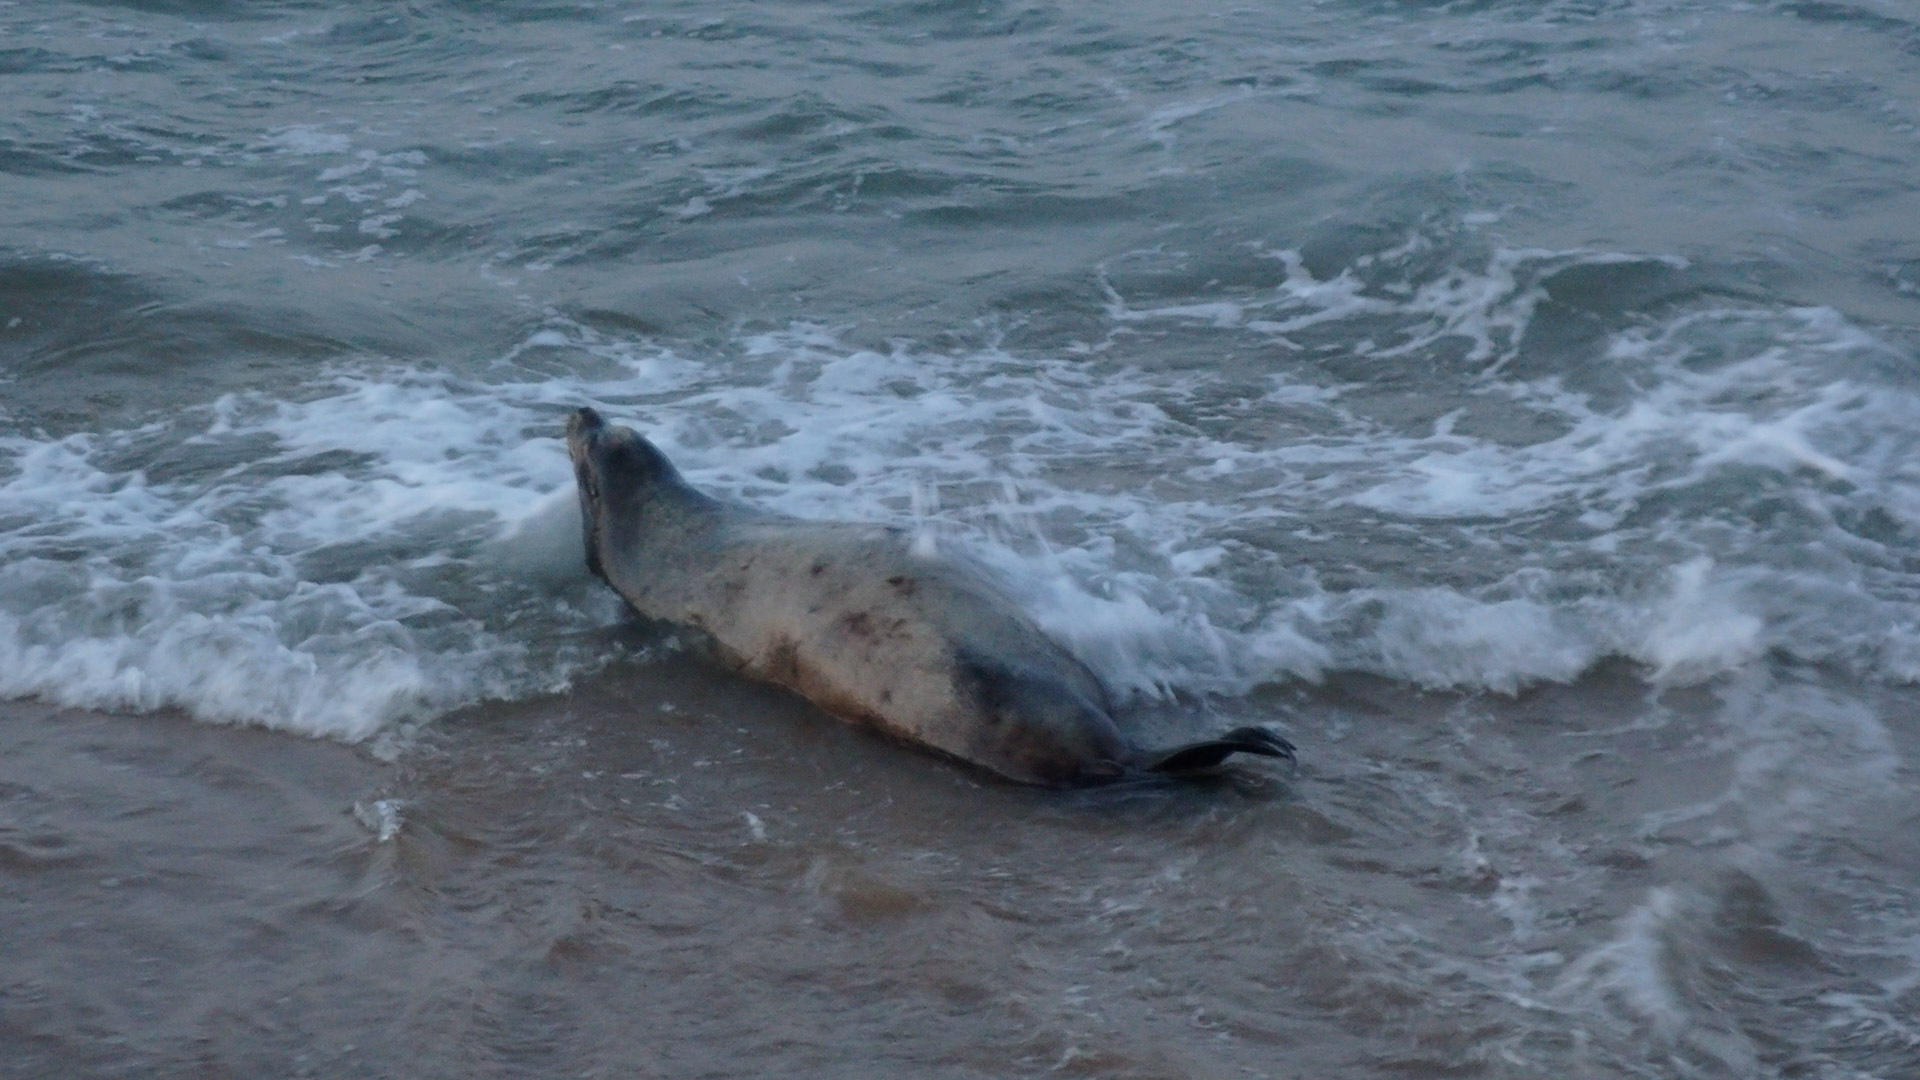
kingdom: Animalia
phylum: Chordata
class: Mammalia
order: Carnivora
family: Otariidae
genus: Zalophus
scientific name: Zalophus californianus
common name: California sea lion
